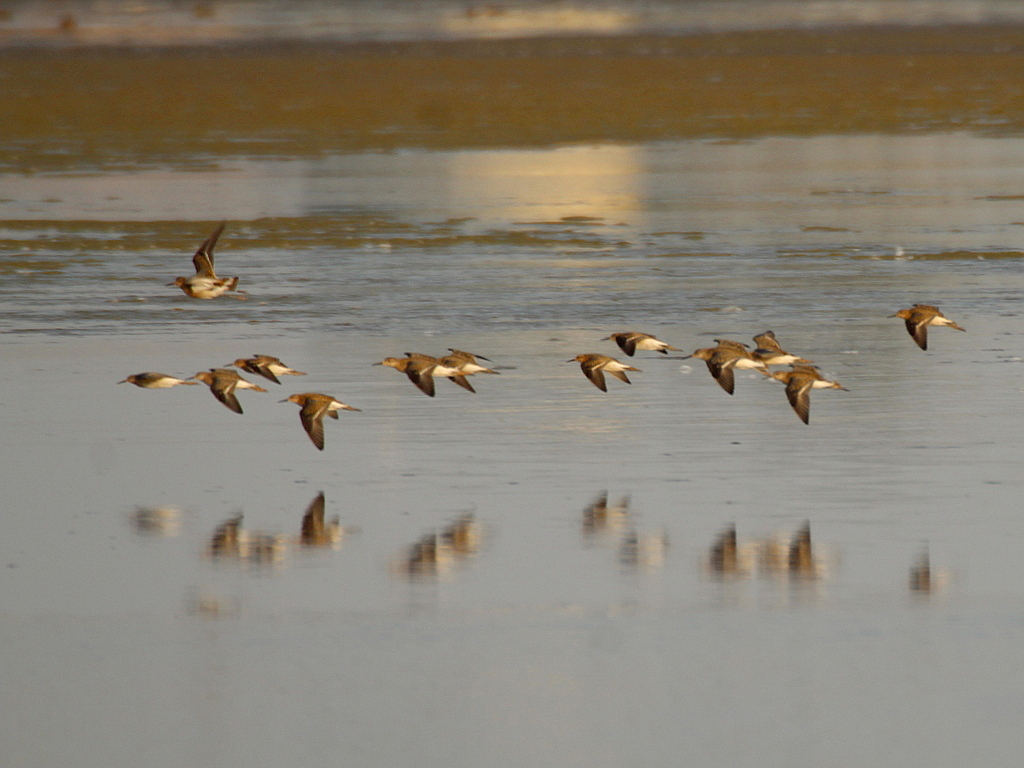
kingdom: Animalia
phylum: Chordata
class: Aves
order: Charadriiformes
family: Scolopacidae
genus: Calidris
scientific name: Calidris pugnax
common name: Ruff
